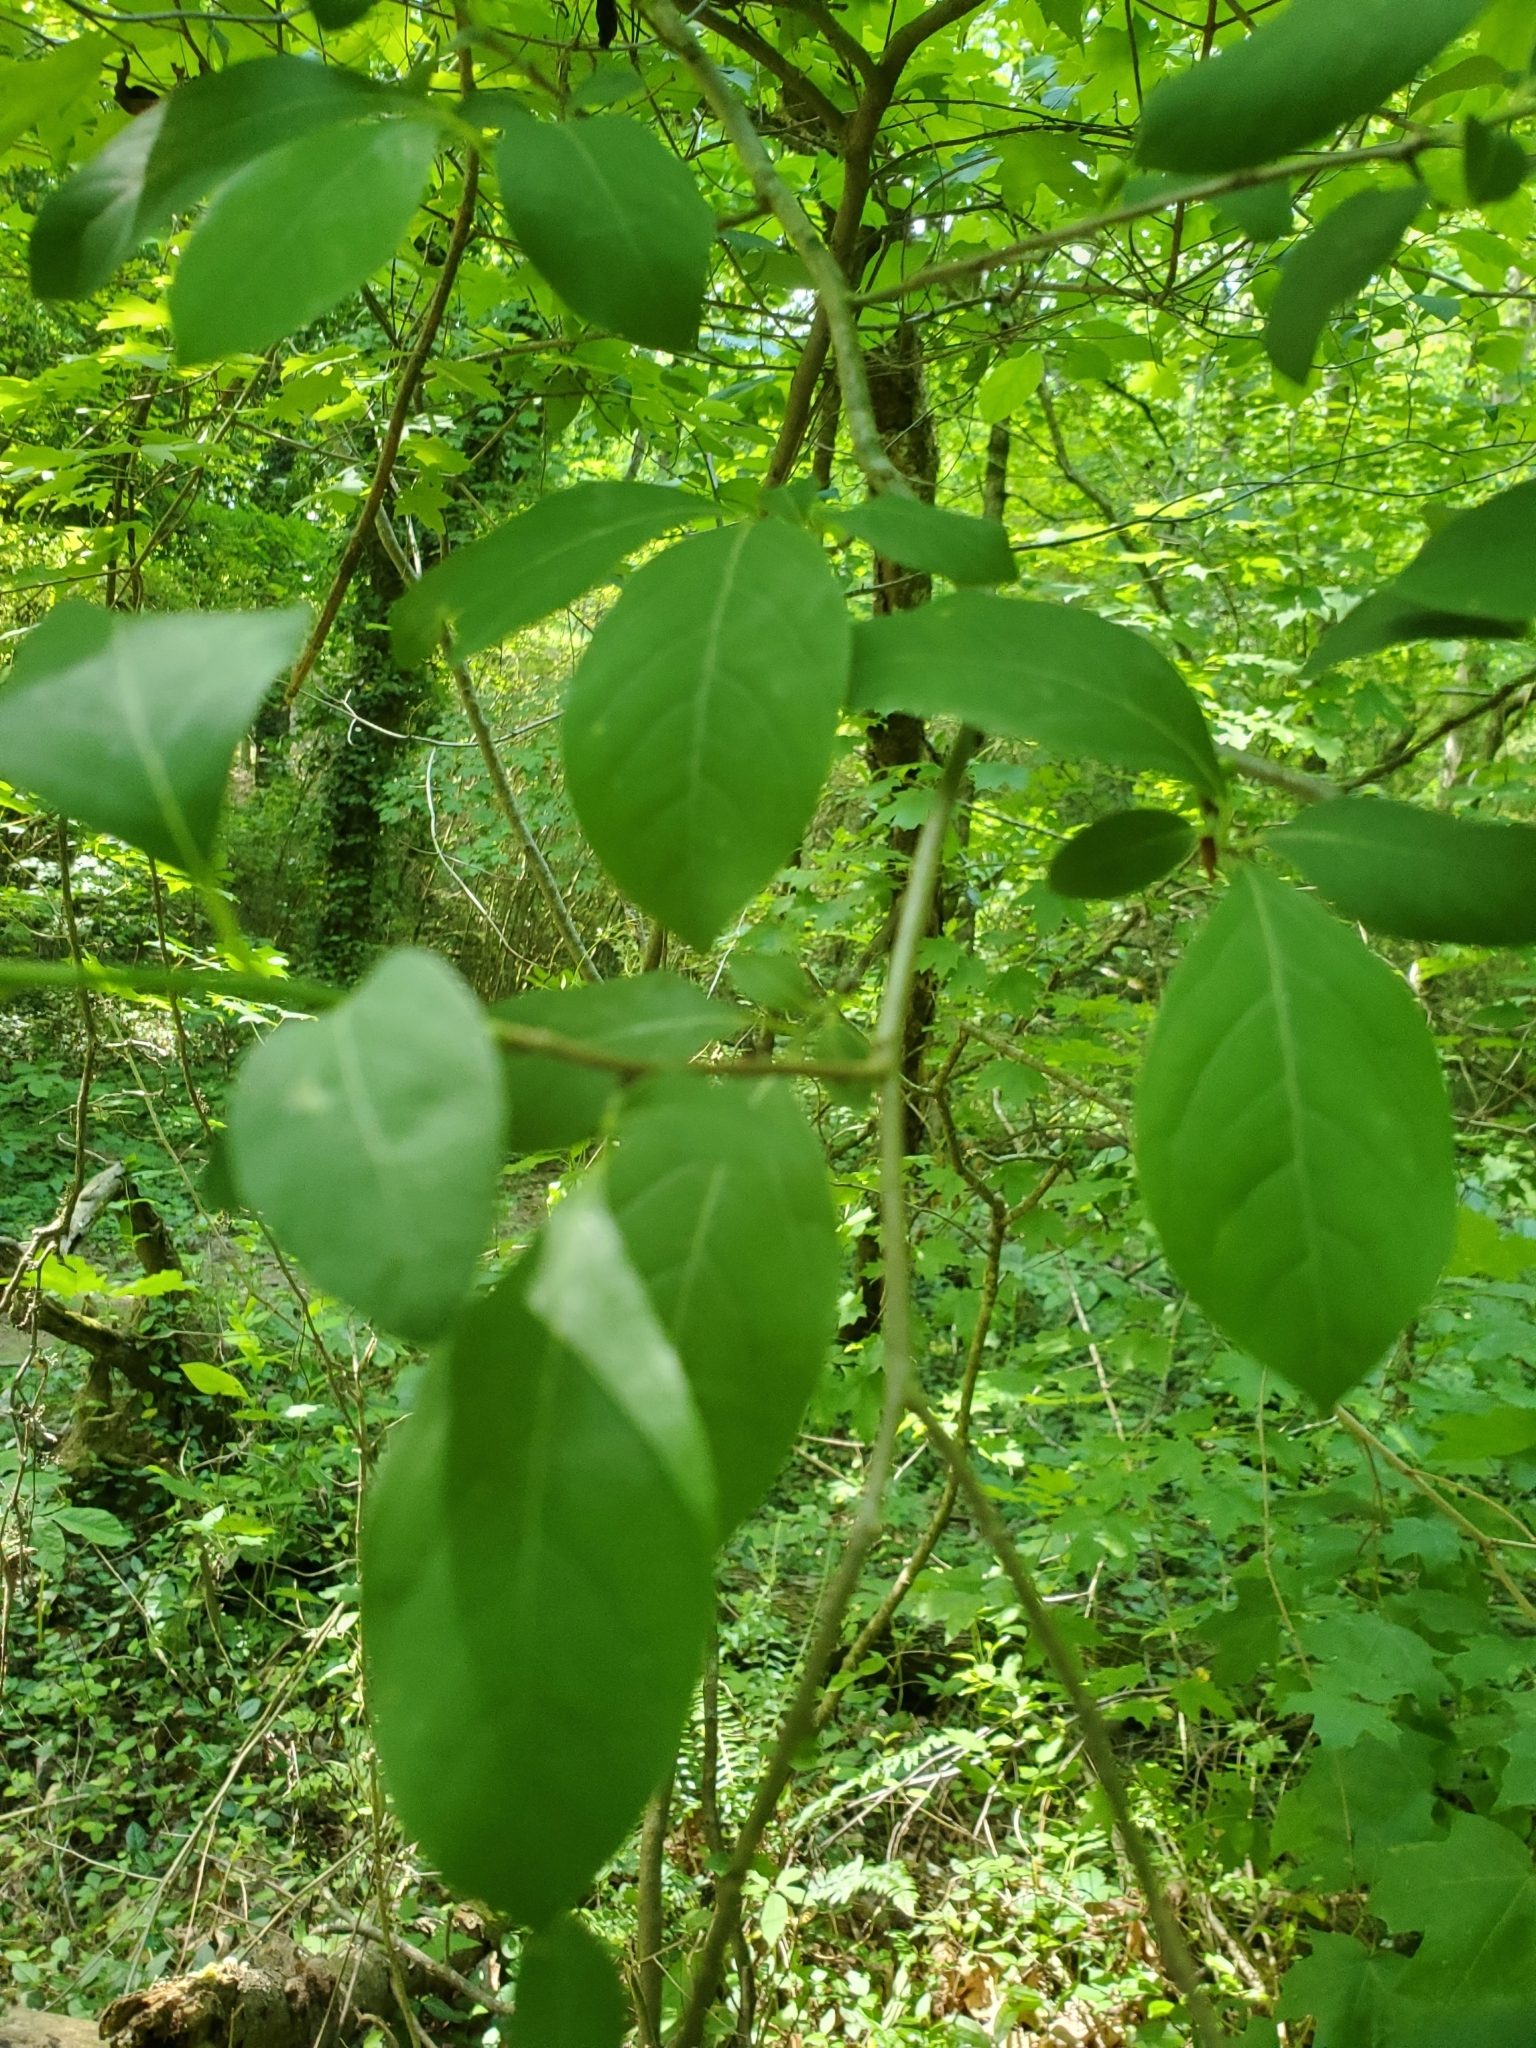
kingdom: Plantae
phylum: Tracheophyta
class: Magnoliopsida
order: Laurales
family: Lauraceae
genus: Lindera
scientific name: Lindera benzoin
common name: Spicebush
